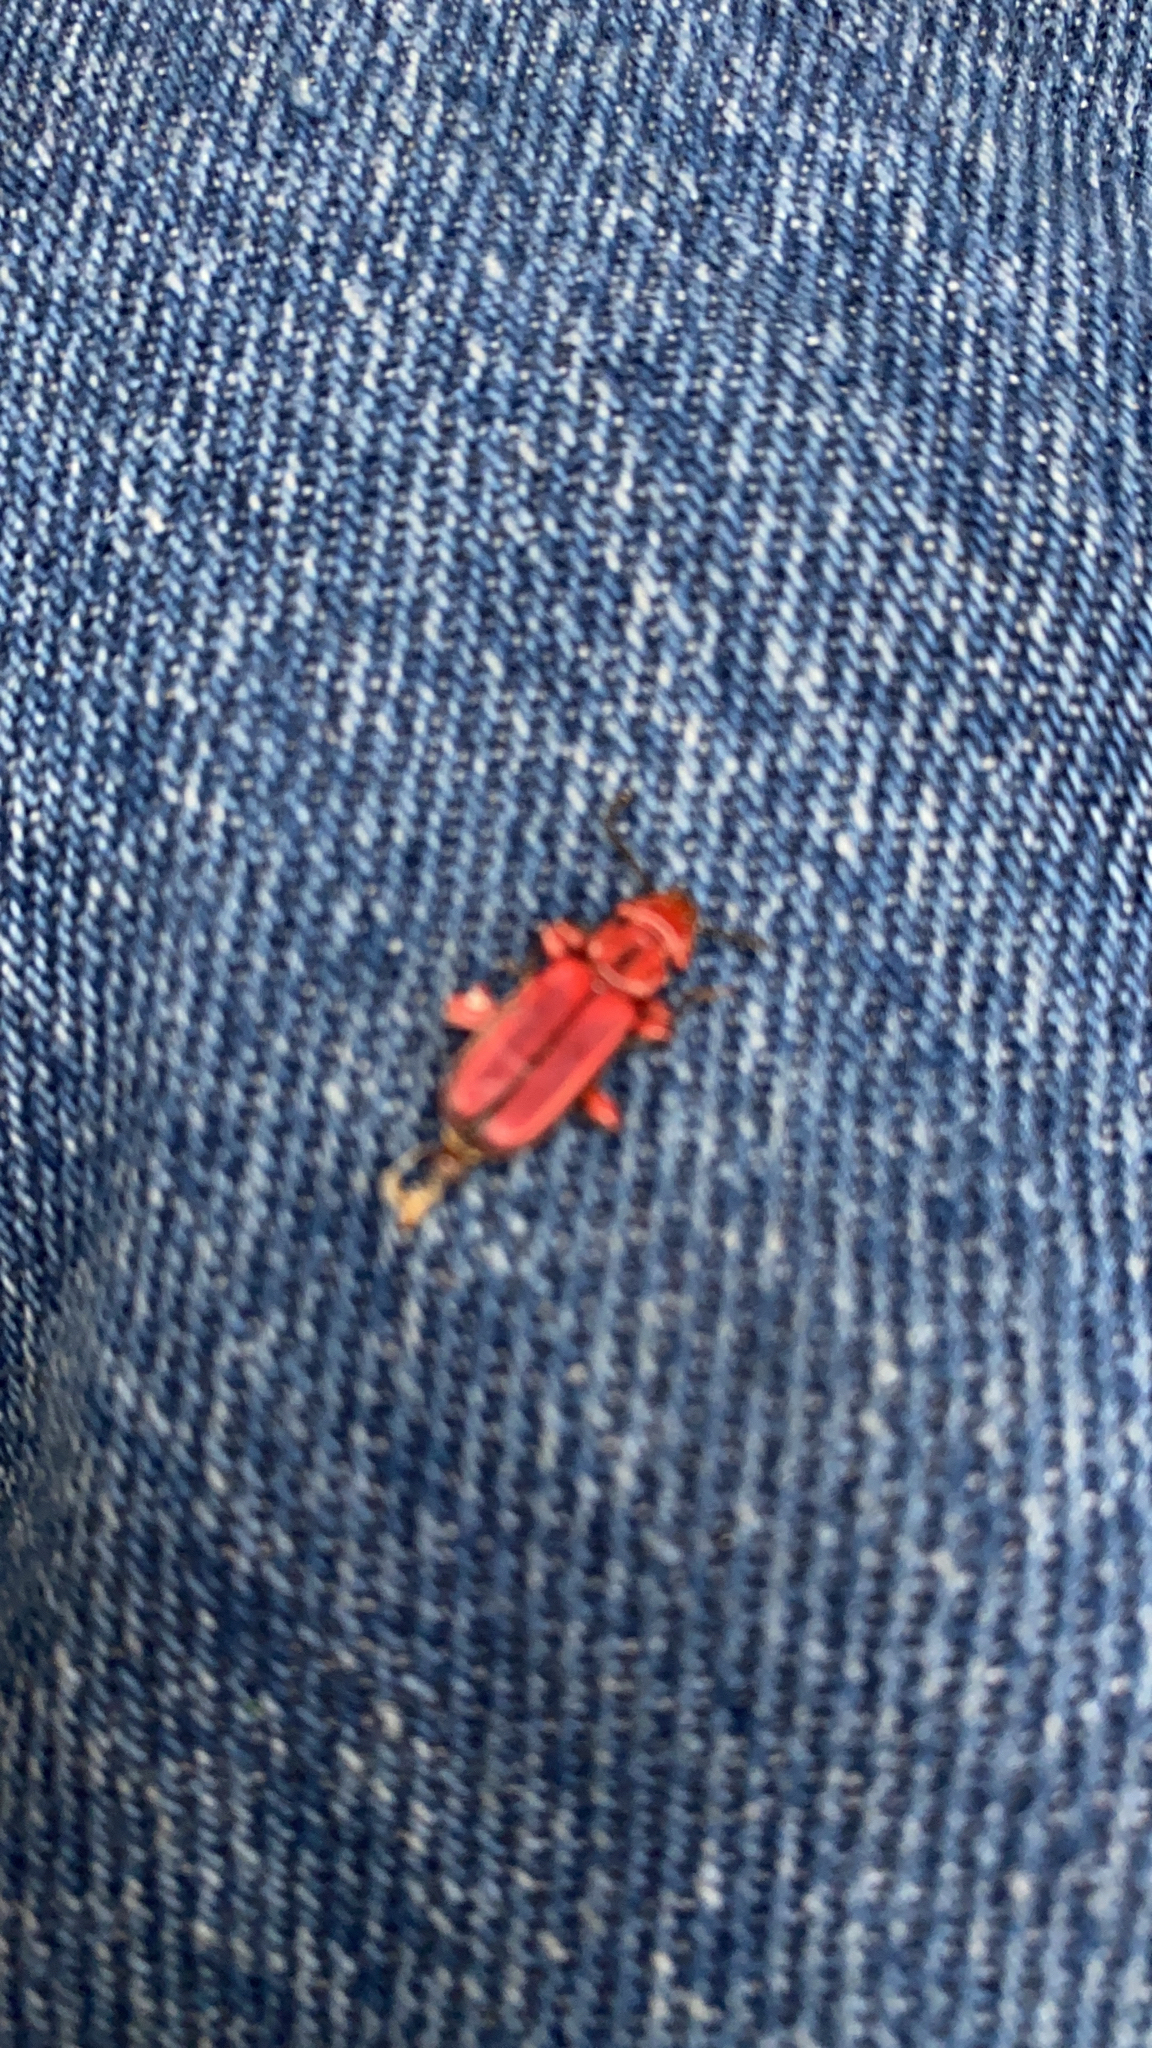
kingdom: Animalia
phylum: Arthropoda
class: Insecta
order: Coleoptera
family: Cucujidae
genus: Cucujus
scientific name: Cucujus clavipes
